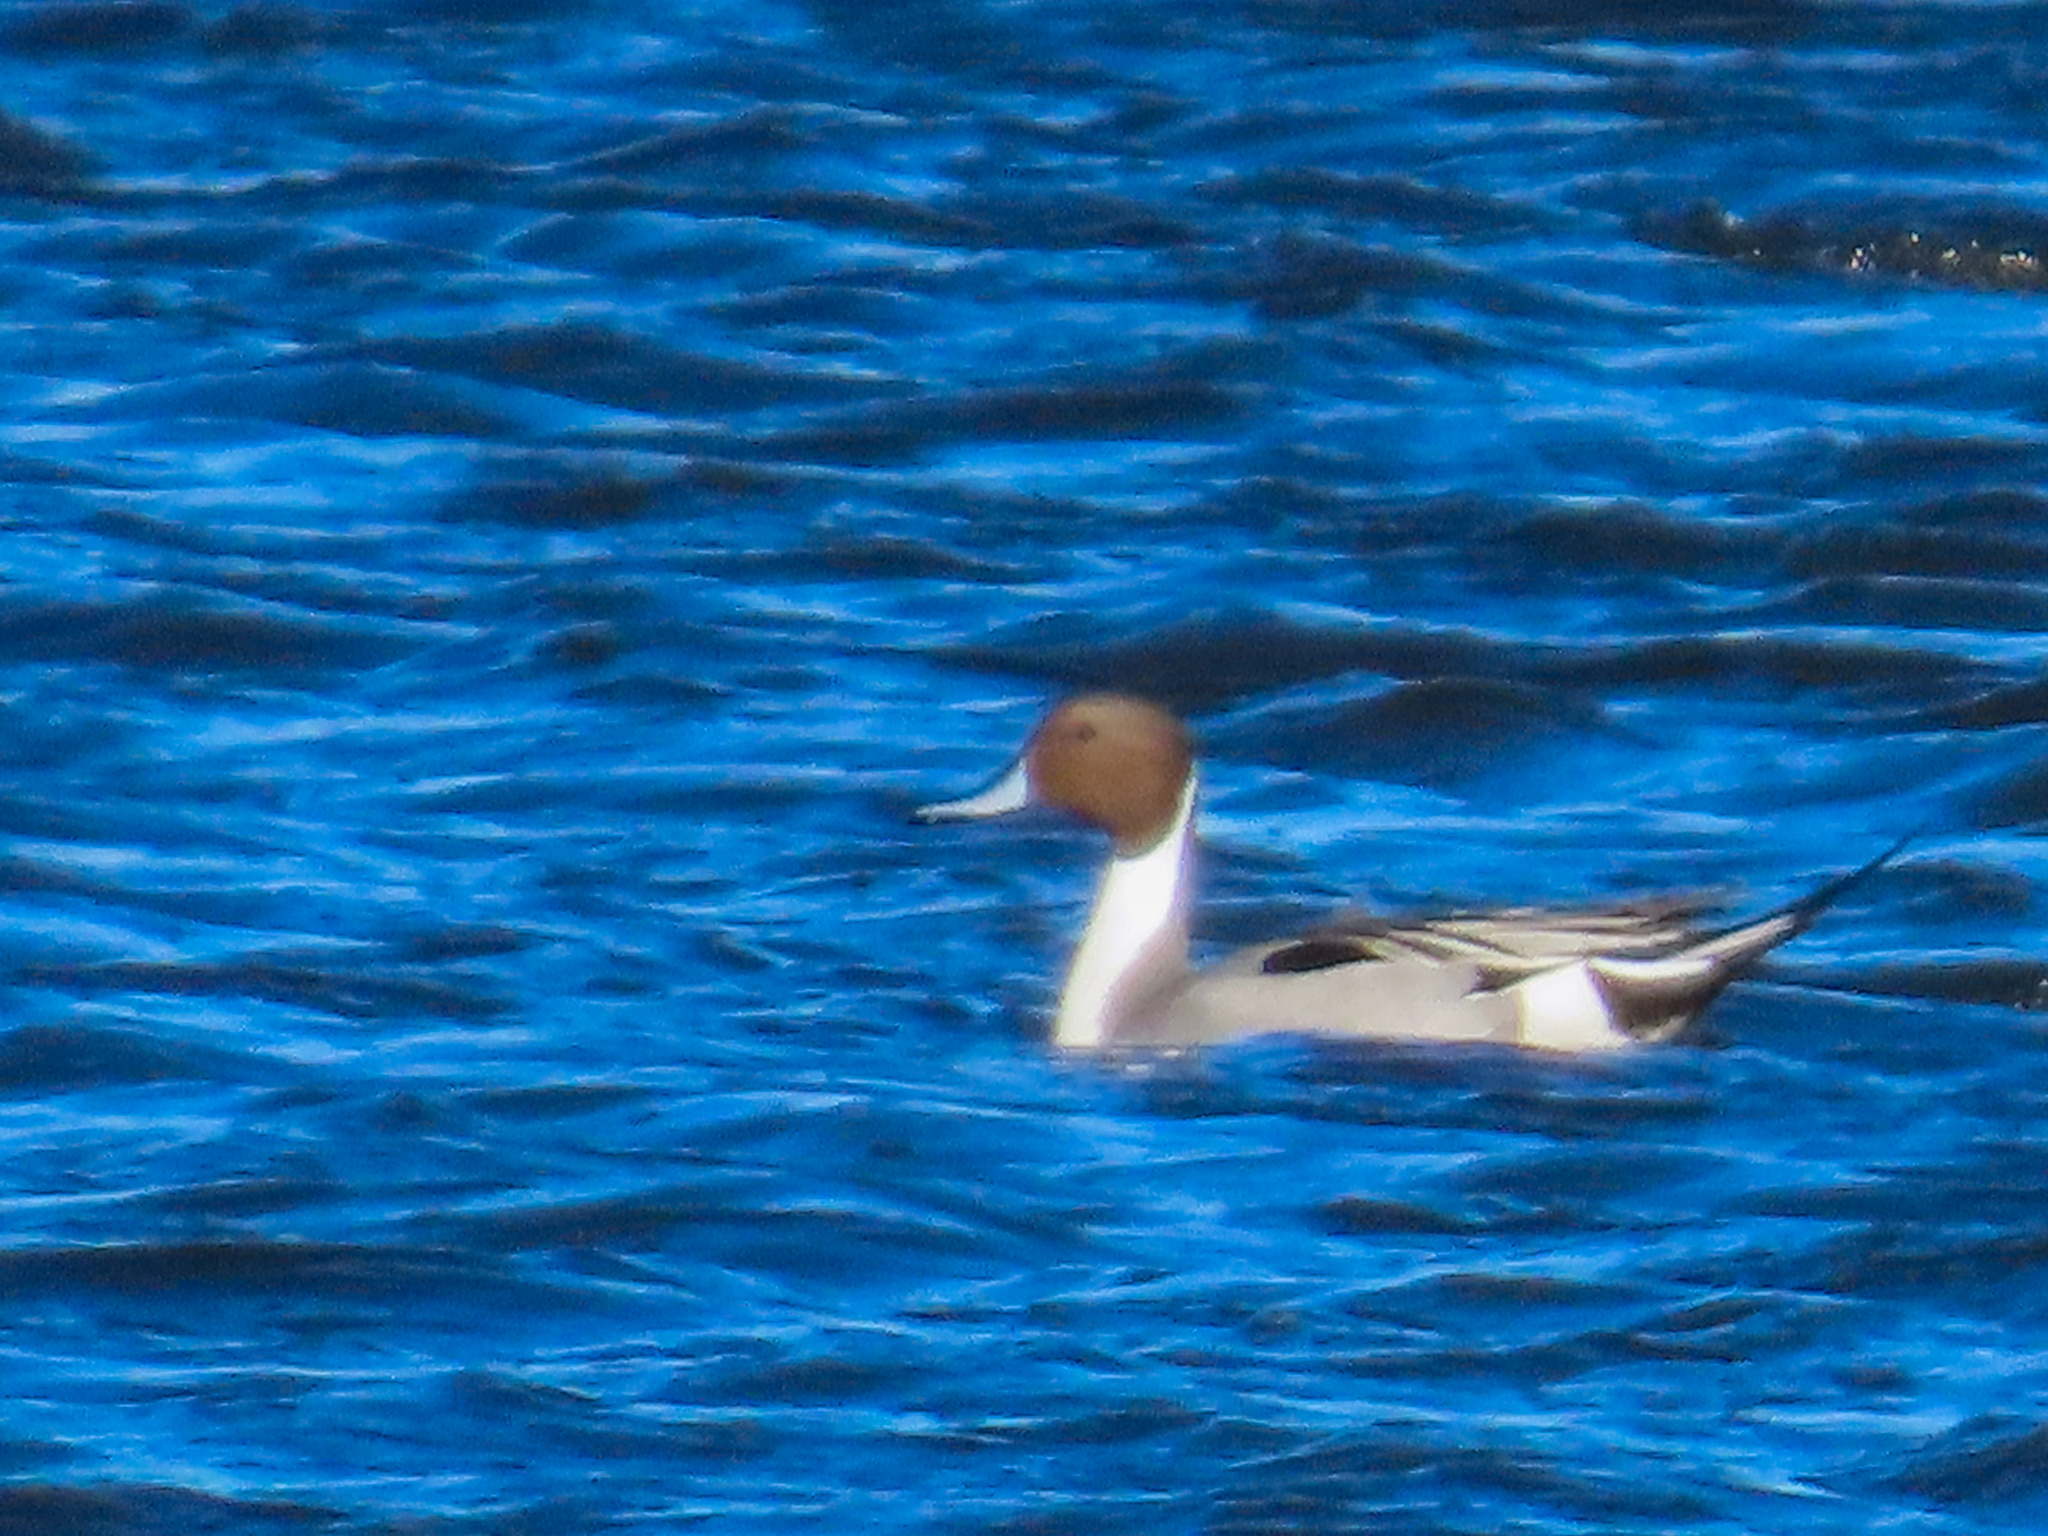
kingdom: Animalia
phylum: Chordata
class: Aves
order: Anseriformes
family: Anatidae
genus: Anas
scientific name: Anas acuta
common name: Northern pintail
